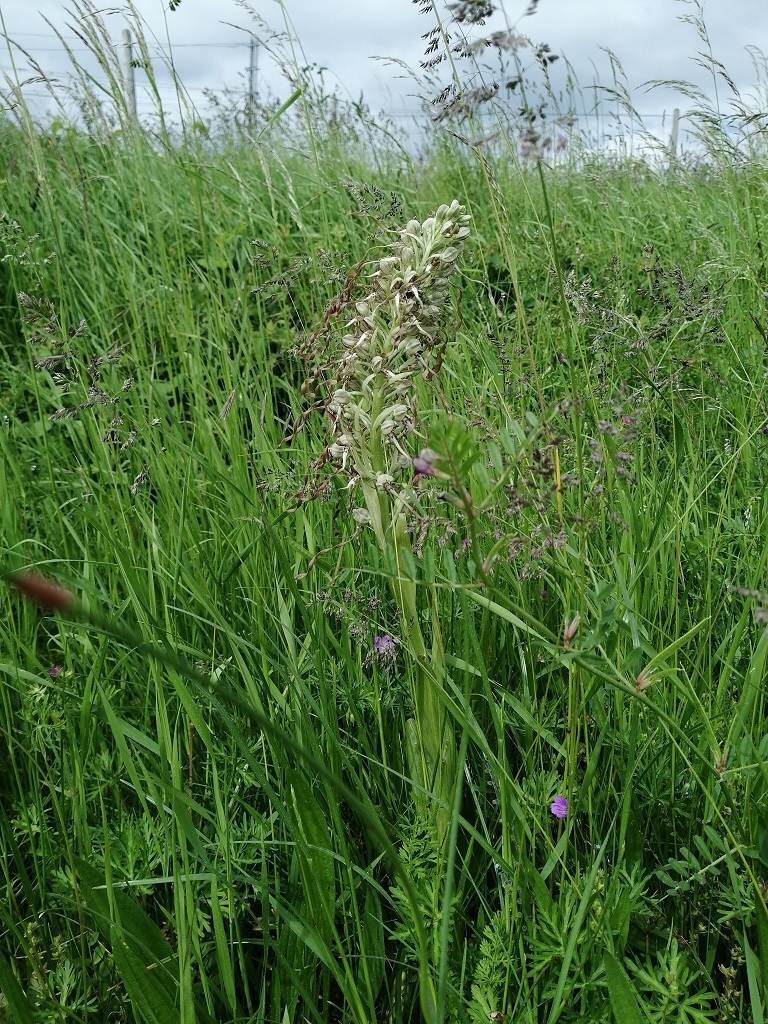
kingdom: Plantae
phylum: Tracheophyta
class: Liliopsida
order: Asparagales
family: Orchidaceae
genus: Himantoglossum
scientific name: Himantoglossum hircinum
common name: Lizard orchid
